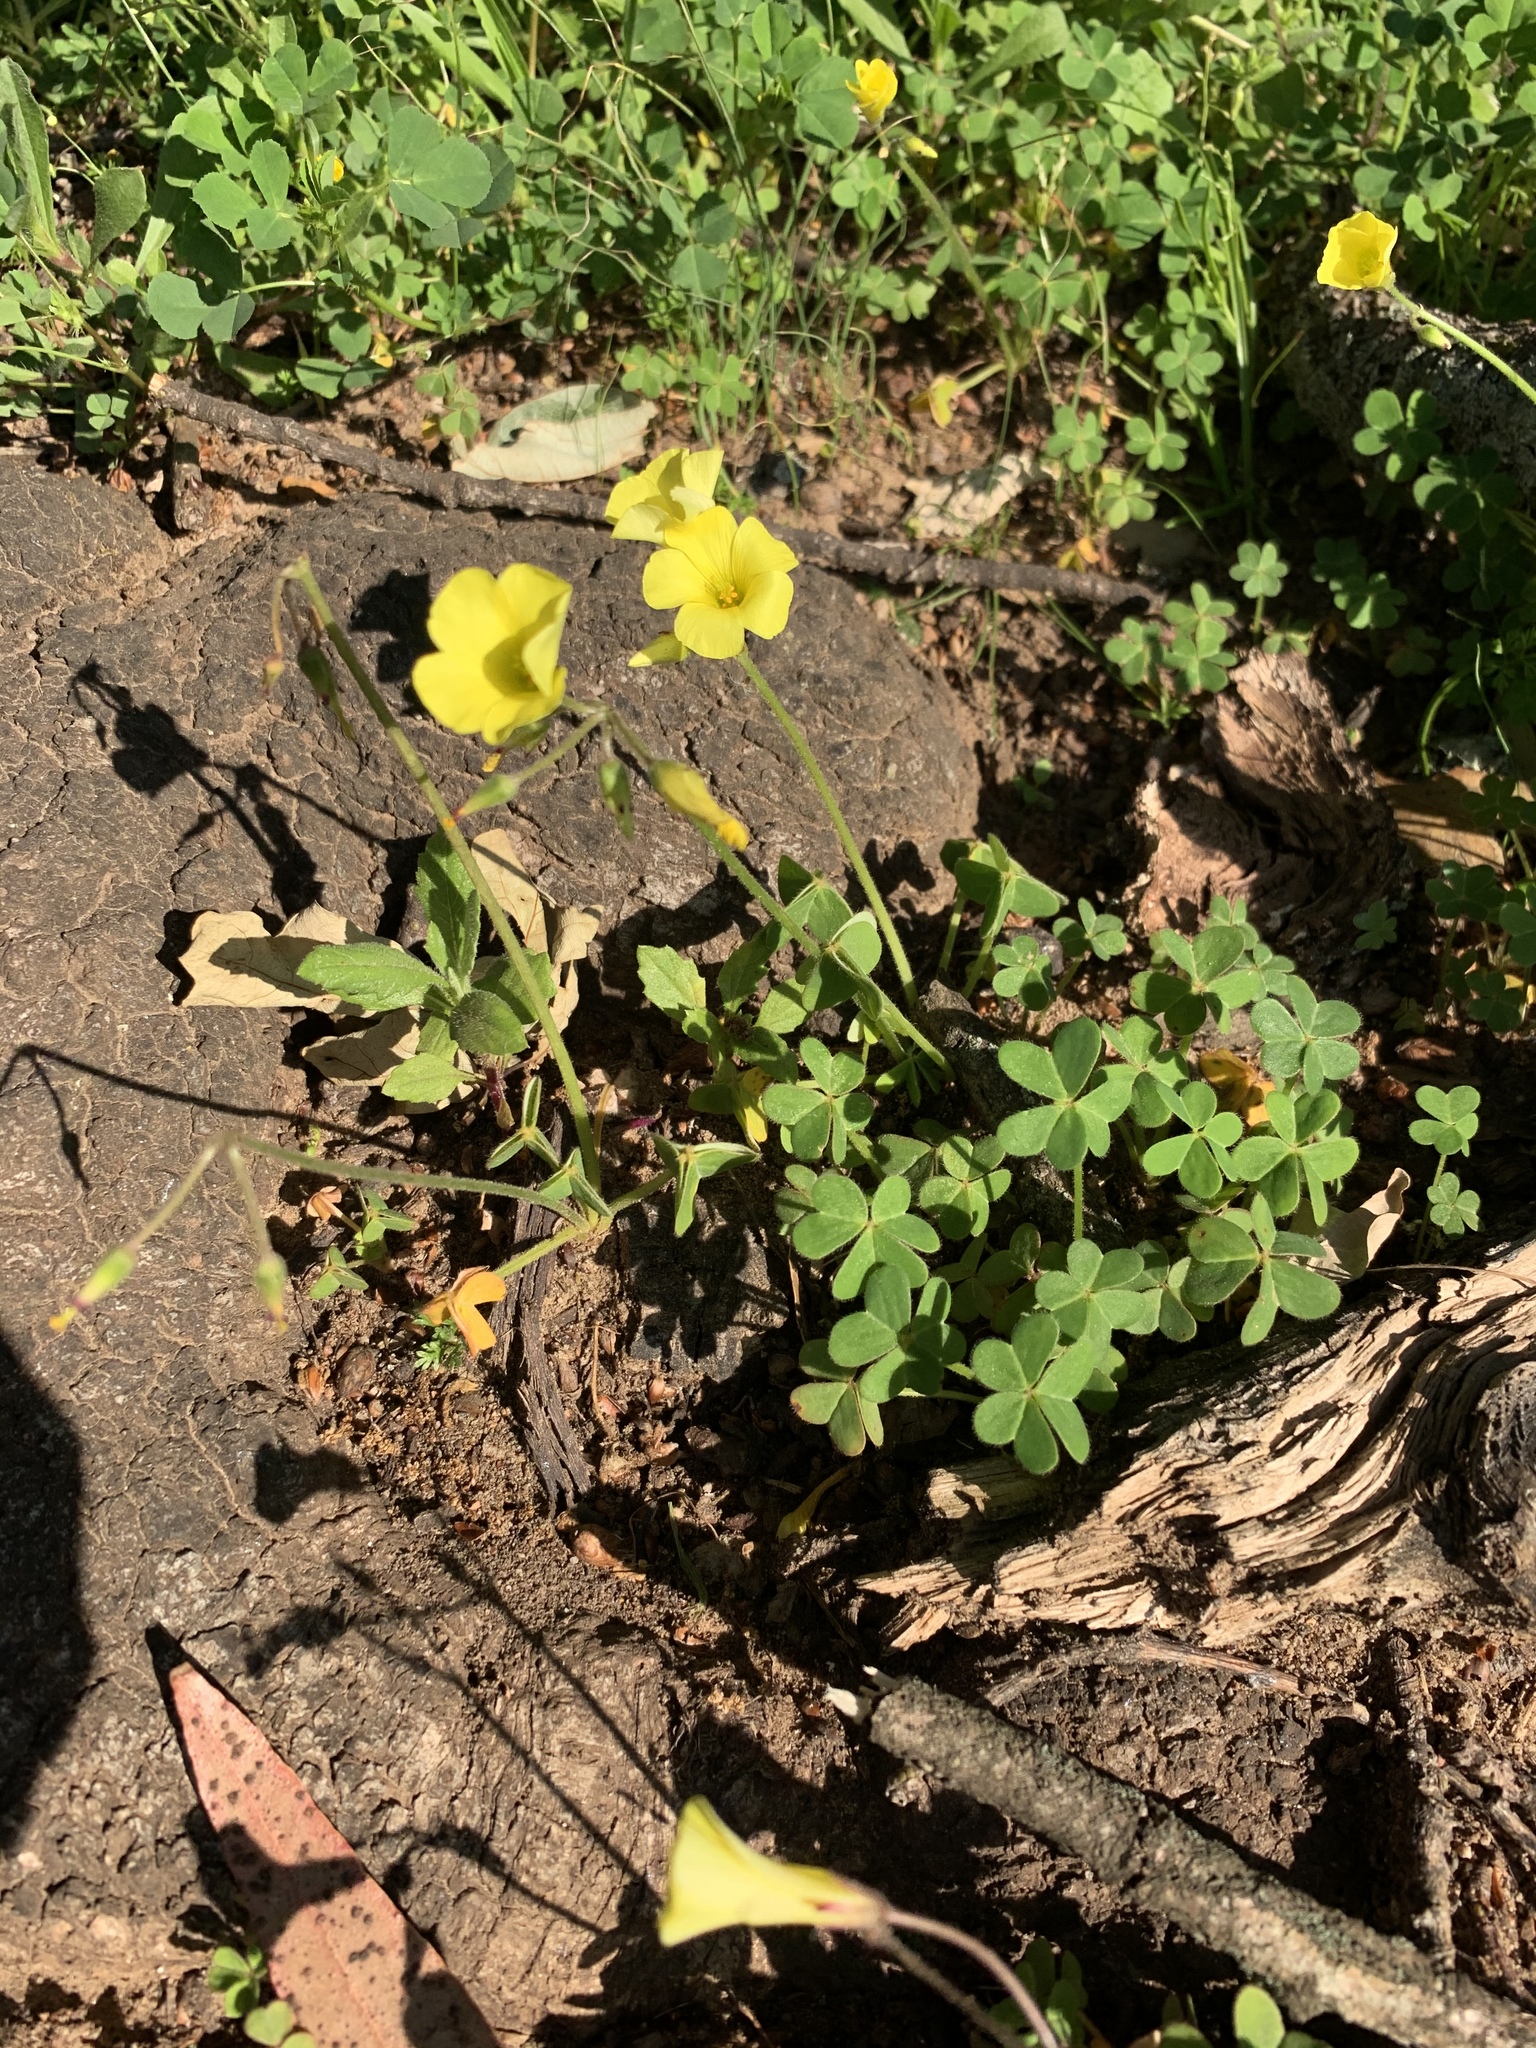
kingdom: Plantae
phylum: Tracheophyta
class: Magnoliopsida
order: Oxalidales
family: Oxalidaceae
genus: Oxalis
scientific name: Oxalis pes-caprae
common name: Bermuda-buttercup
